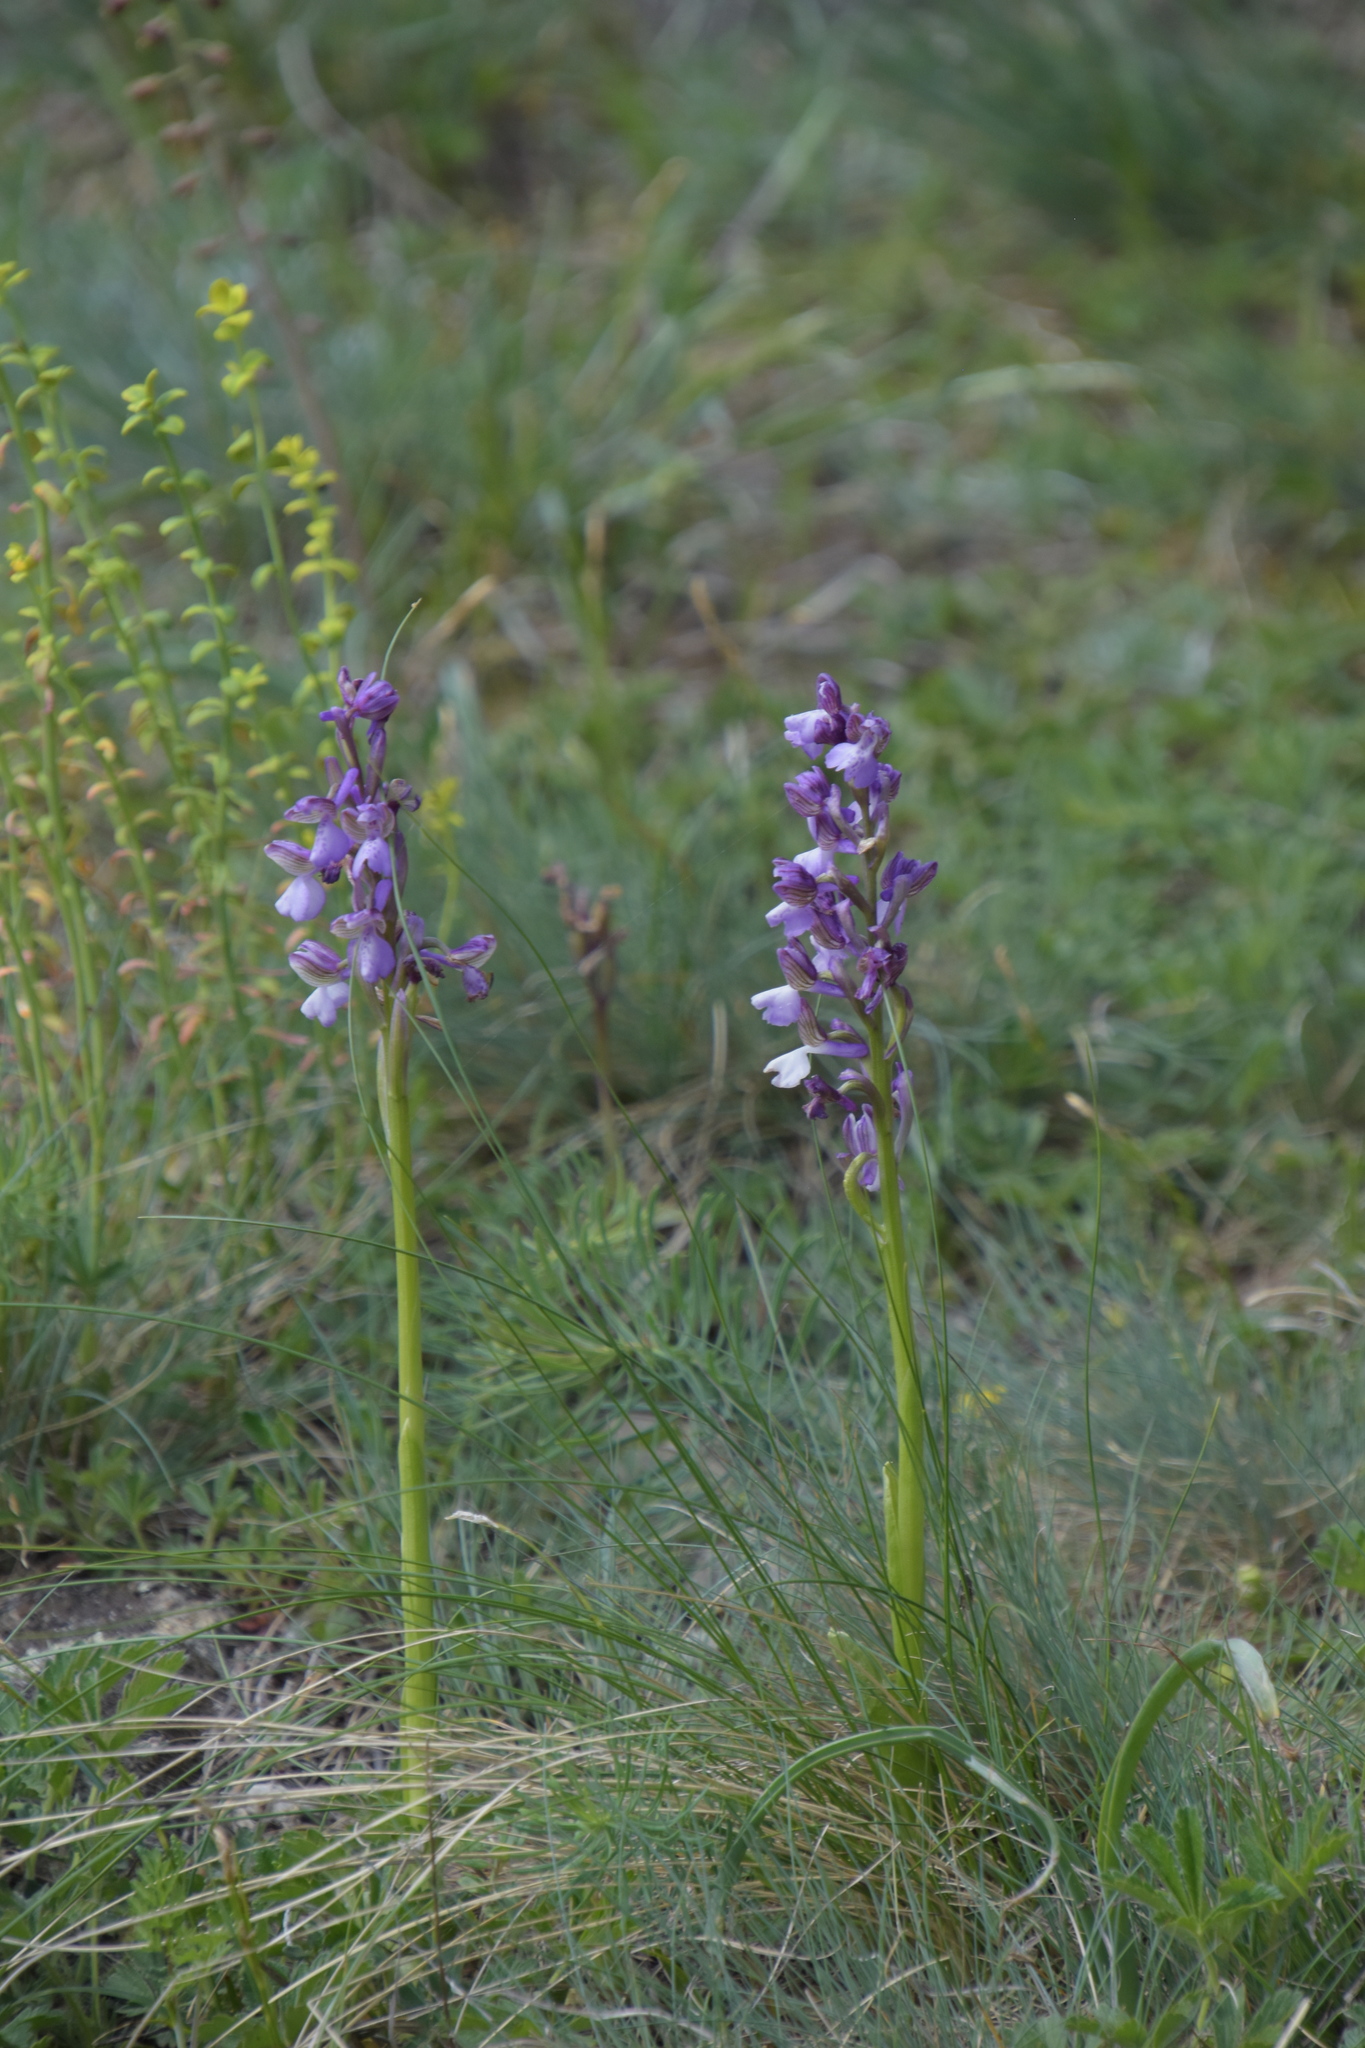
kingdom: Plantae
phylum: Tracheophyta
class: Liliopsida
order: Asparagales
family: Orchidaceae
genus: Anacamptis
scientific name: Anacamptis morio
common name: Green-winged orchid
